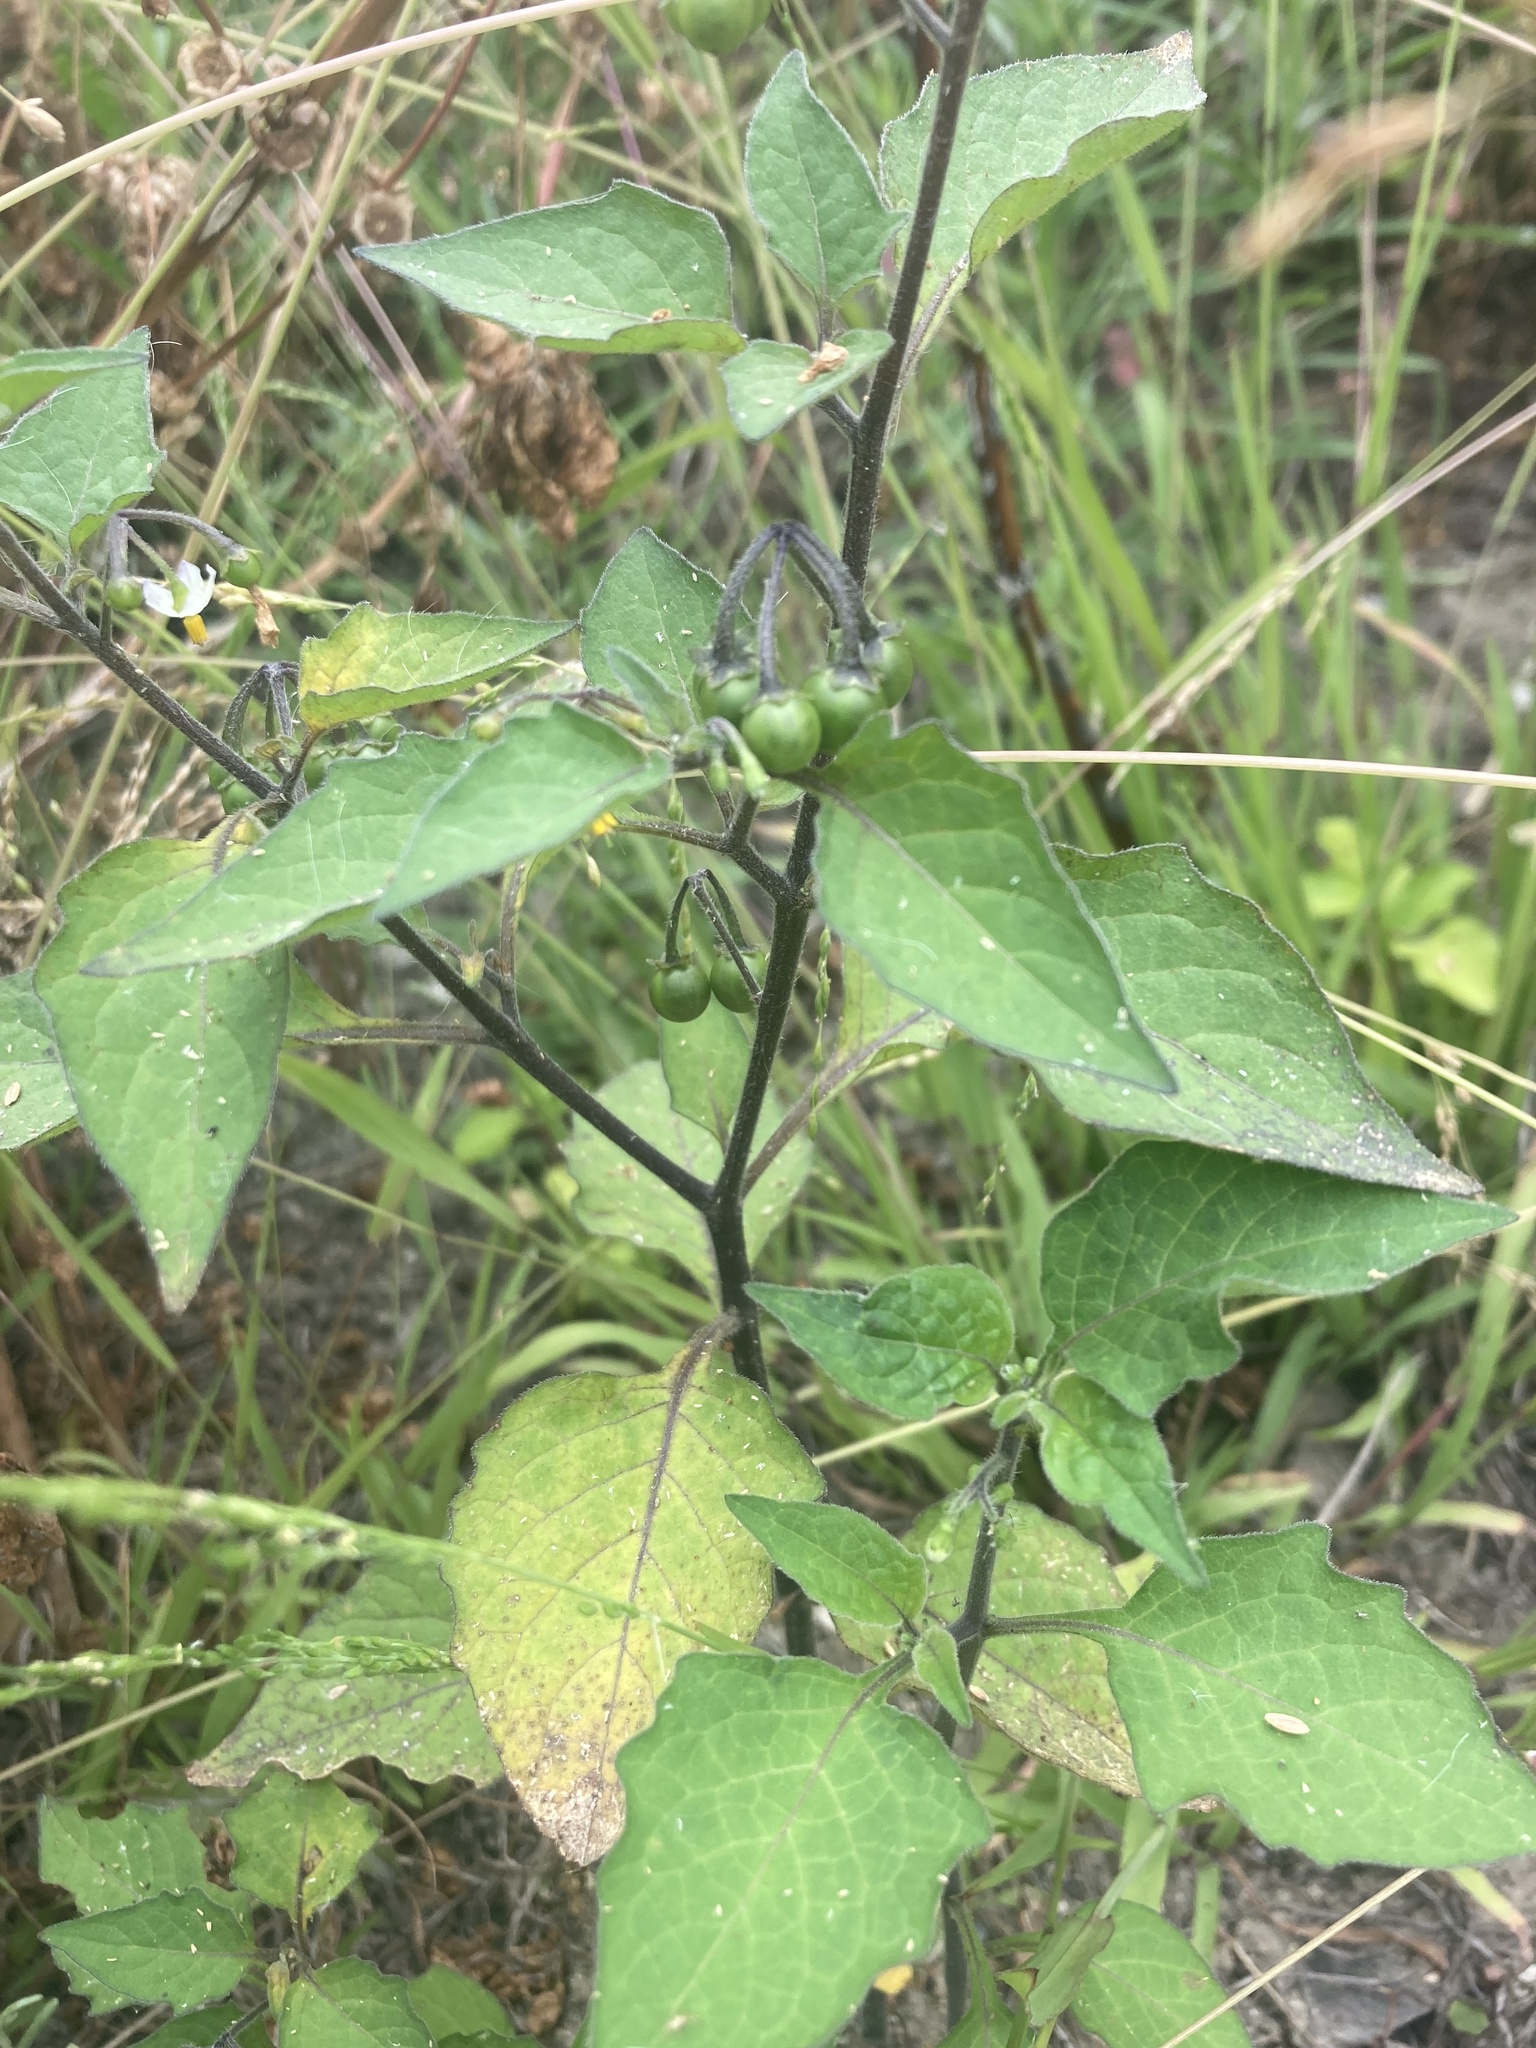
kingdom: Plantae
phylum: Tracheophyta
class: Magnoliopsida
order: Solanales
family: Solanaceae
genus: Solanum
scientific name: Solanum nigrum
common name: Black nightshade
